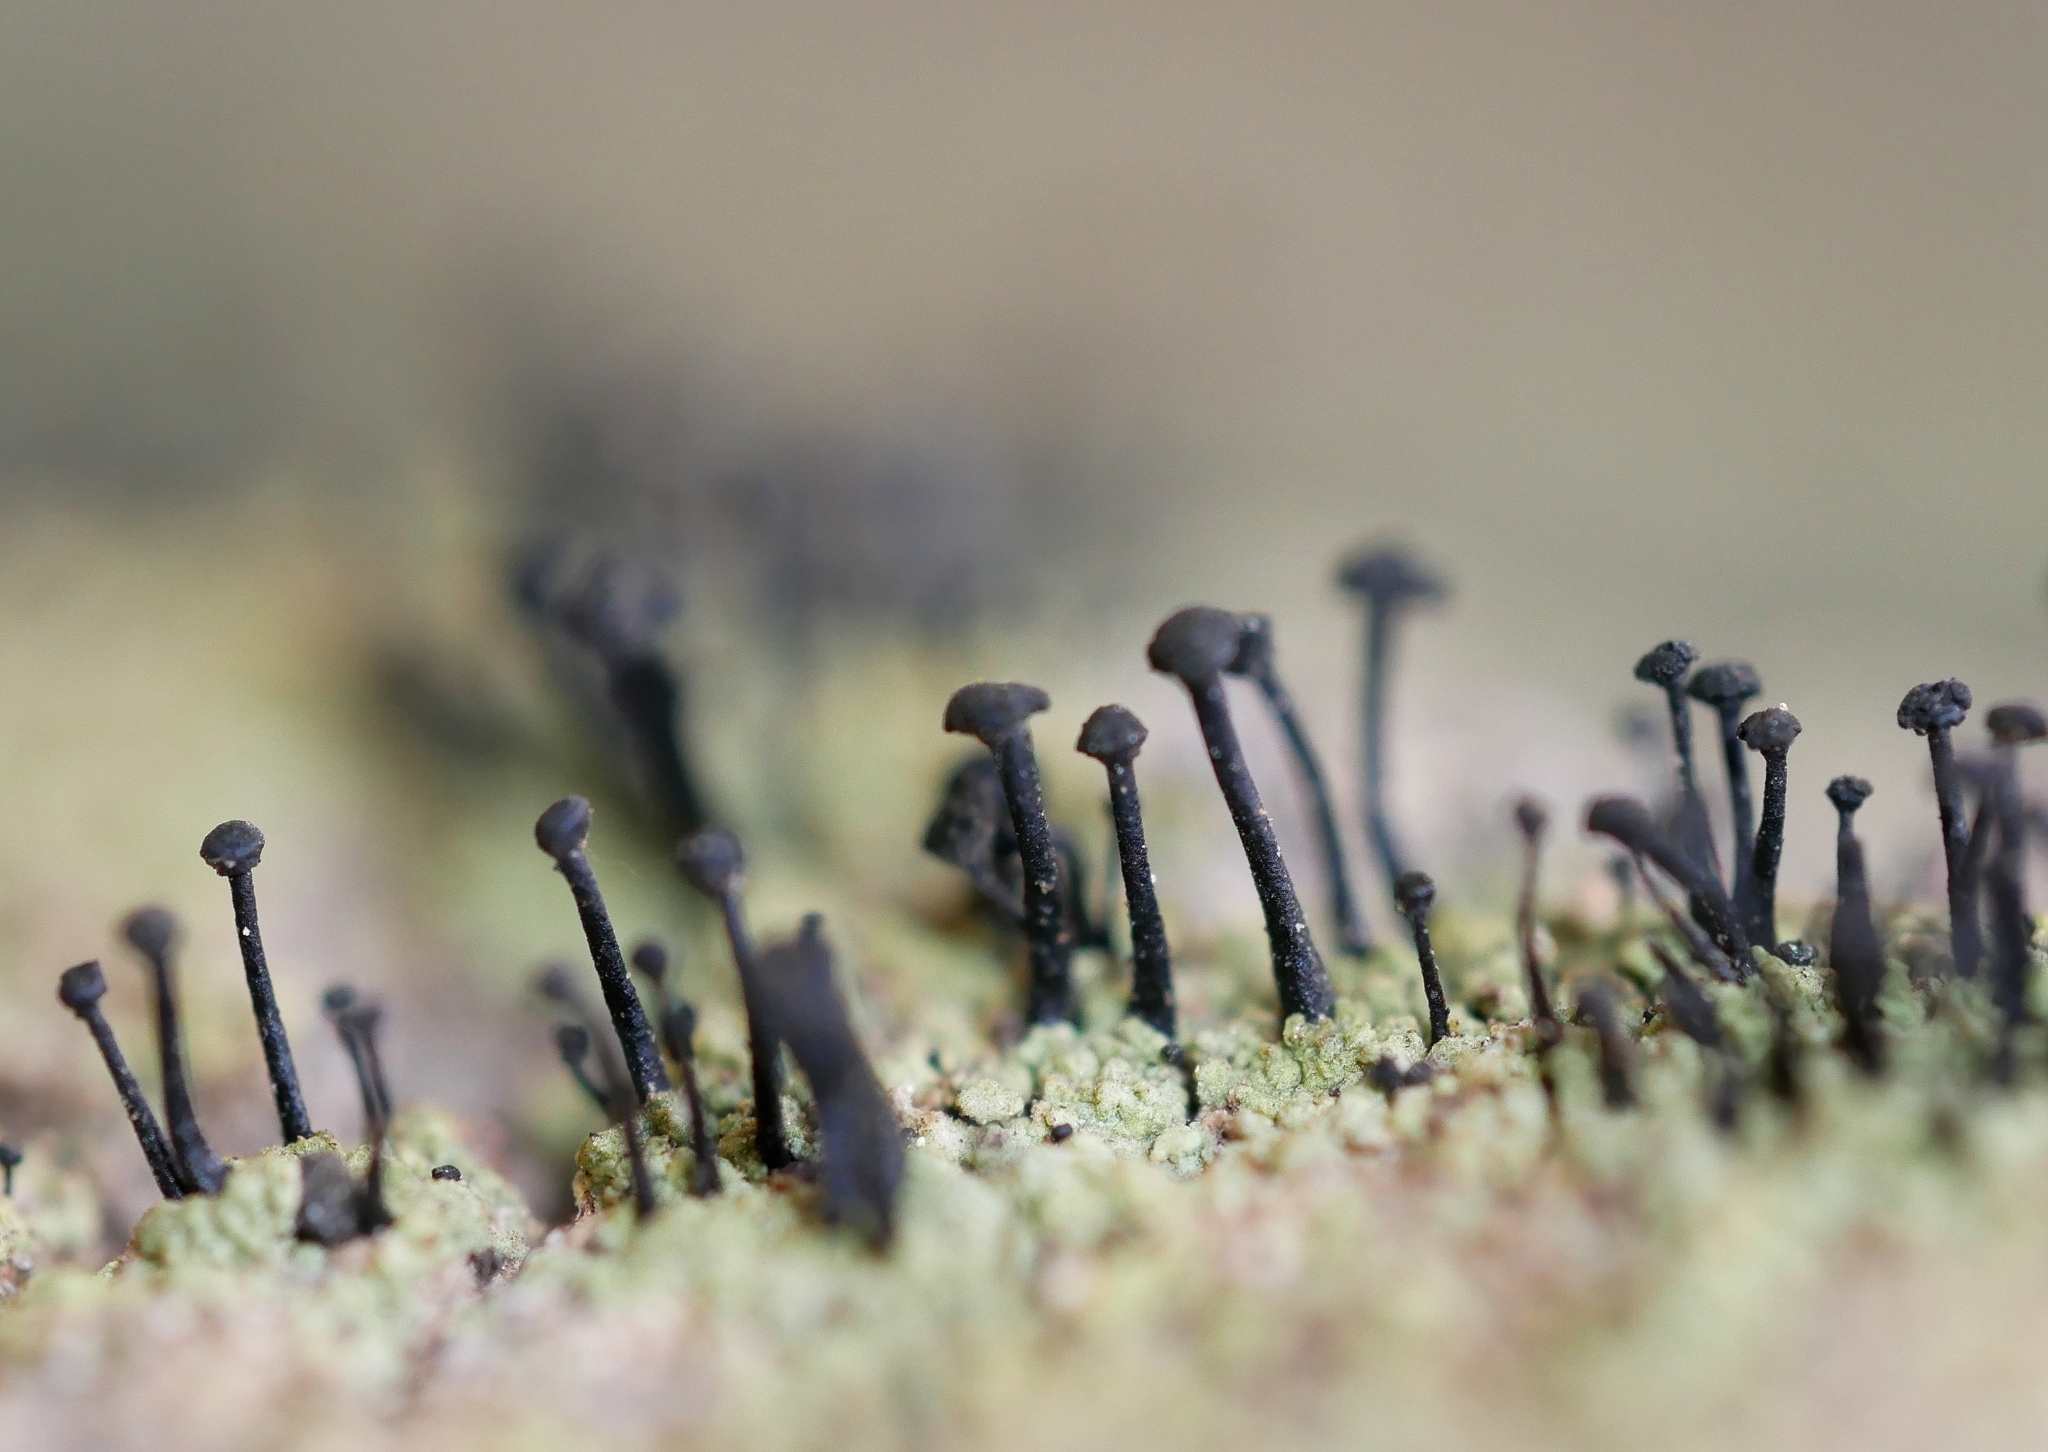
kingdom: Fungi
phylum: Ascomycota
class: Lecanoromycetes
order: Caliciales
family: Caliciaceae
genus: Calicium
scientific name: Calicium viride
